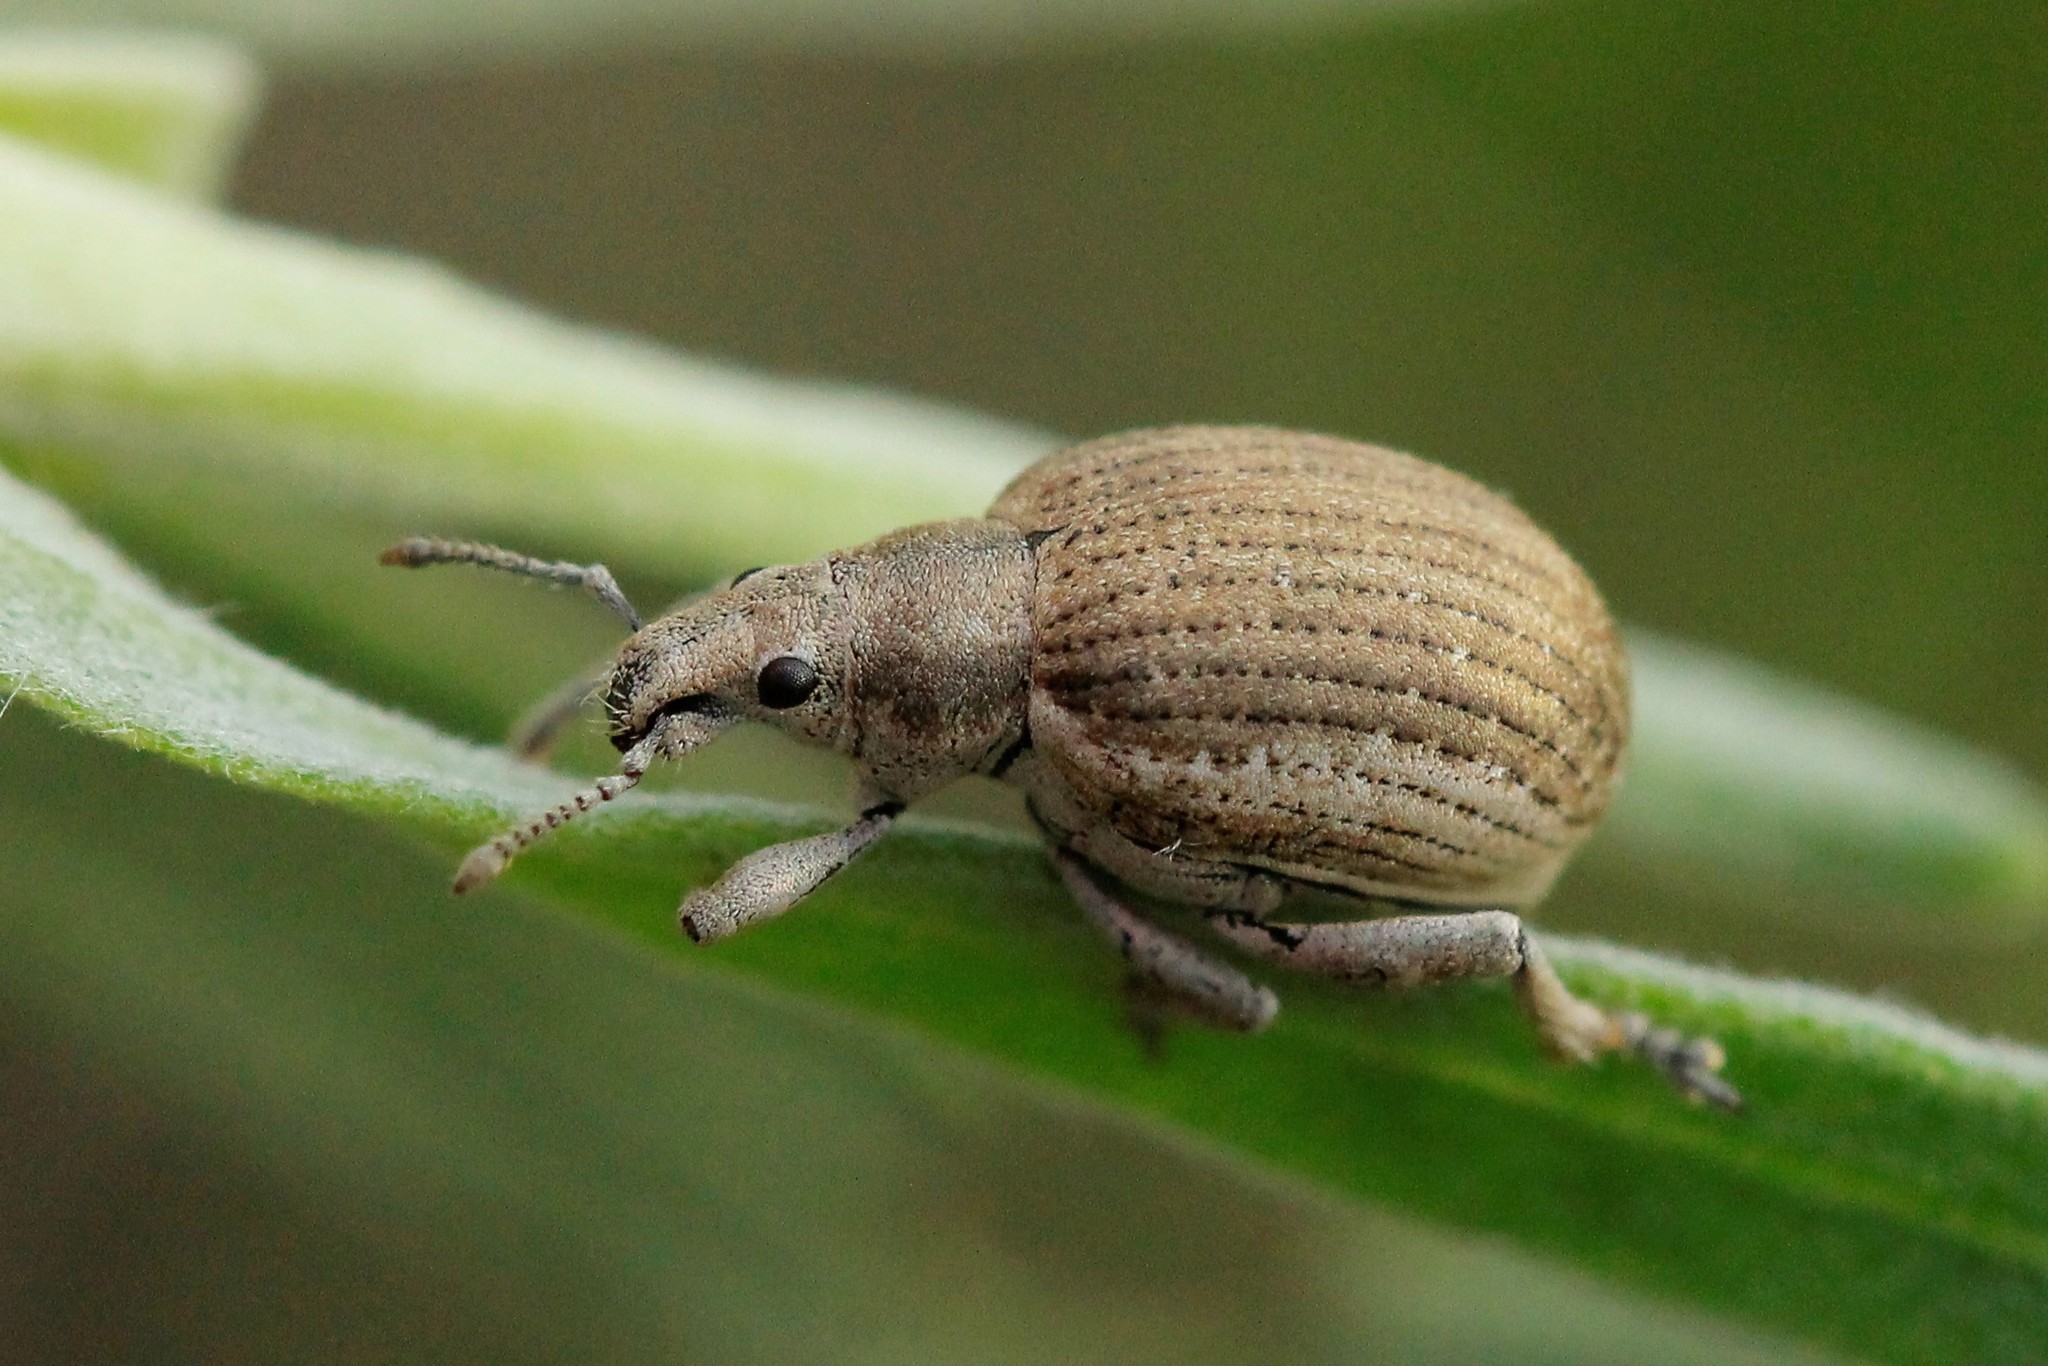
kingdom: Animalia
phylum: Arthropoda
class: Insecta
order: Coleoptera
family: Curculionidae
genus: Attactagenus
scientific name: Attactagenus albinus
